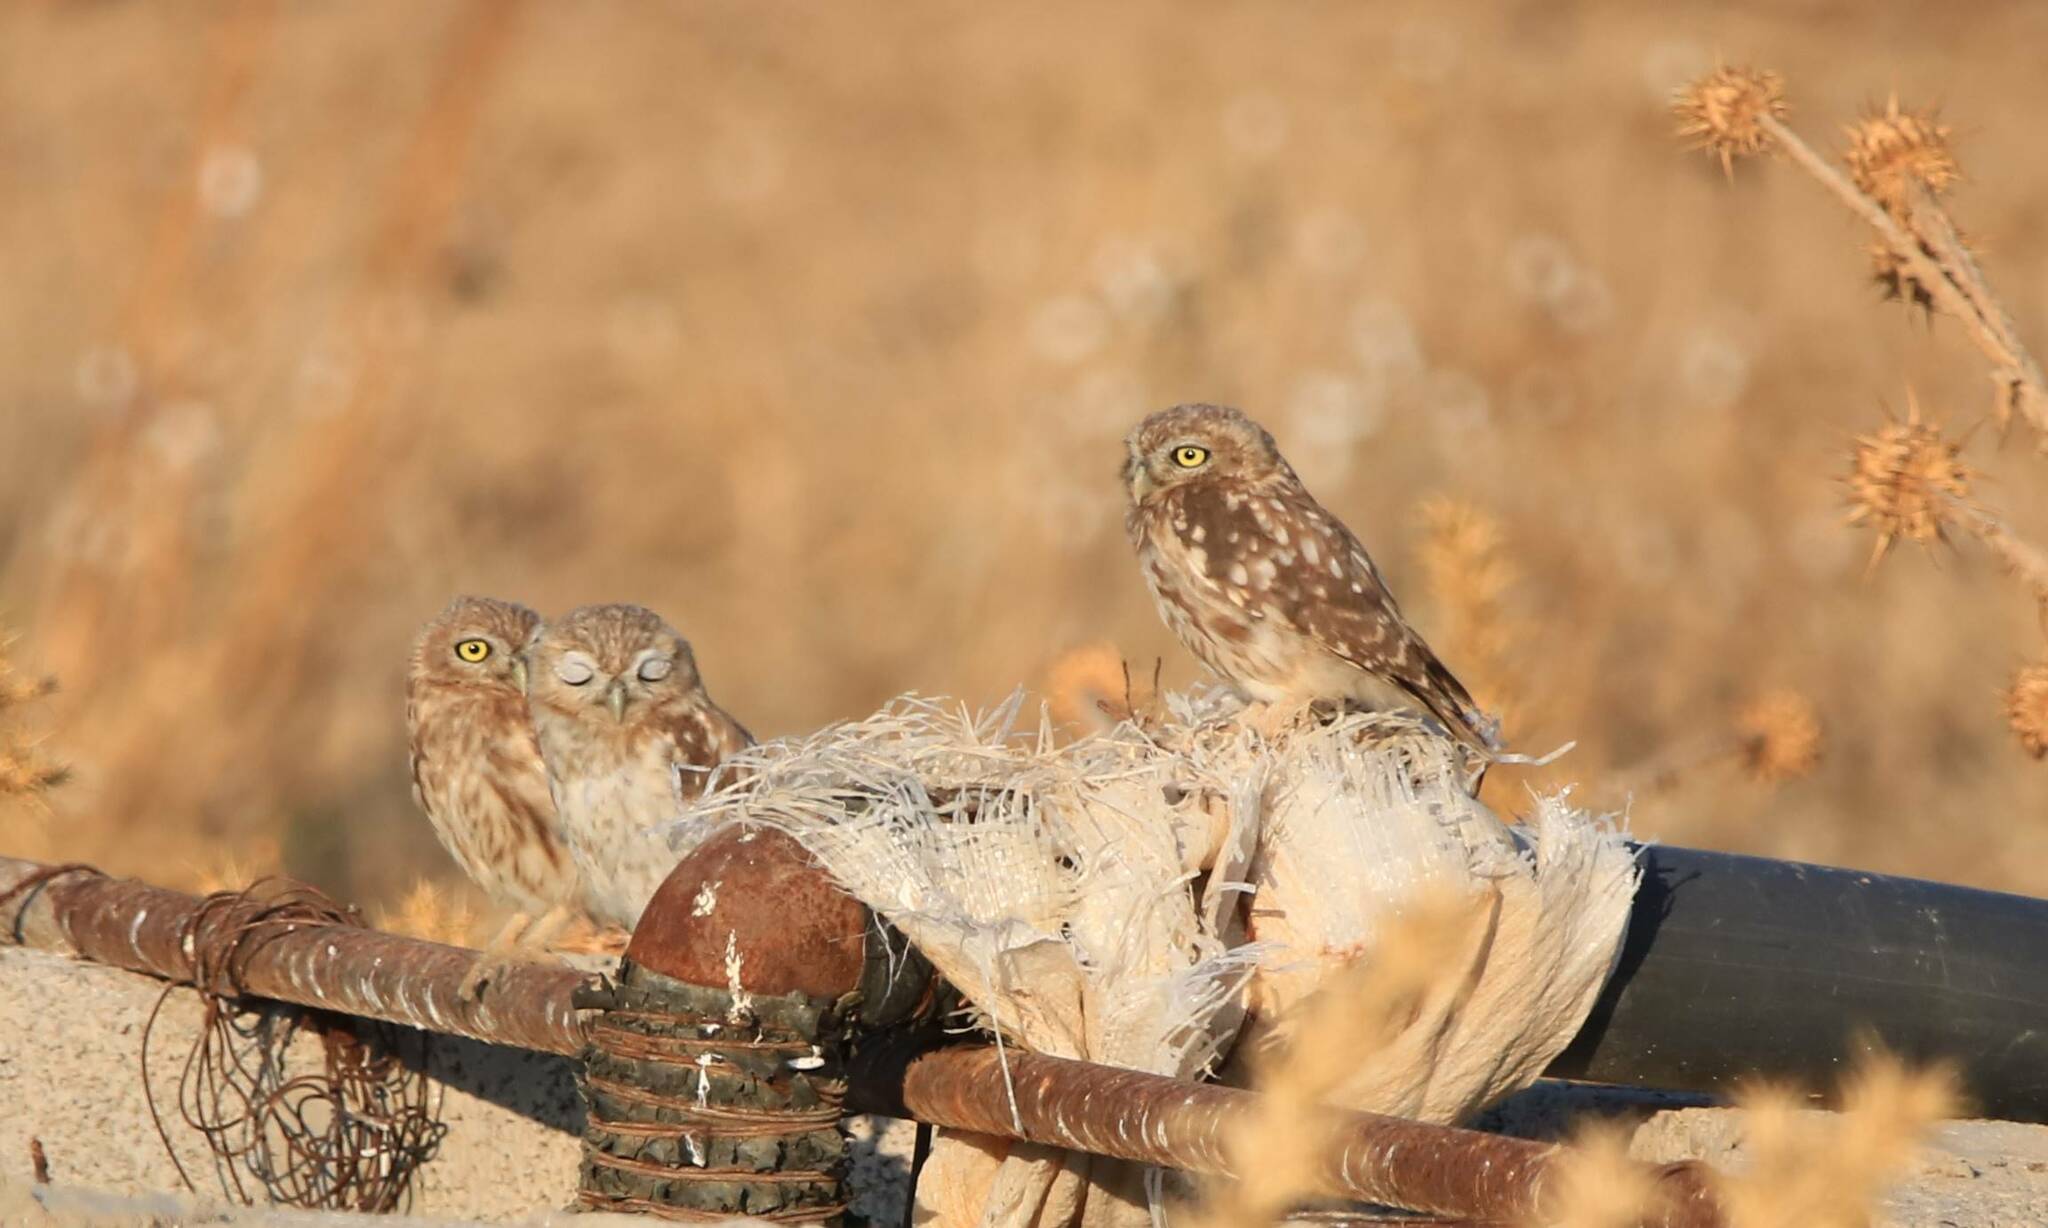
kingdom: Animalia
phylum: Chordata
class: Aves
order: Strigiformes
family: Strigidae
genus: Athene
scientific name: Athene noctua
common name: Little owl
